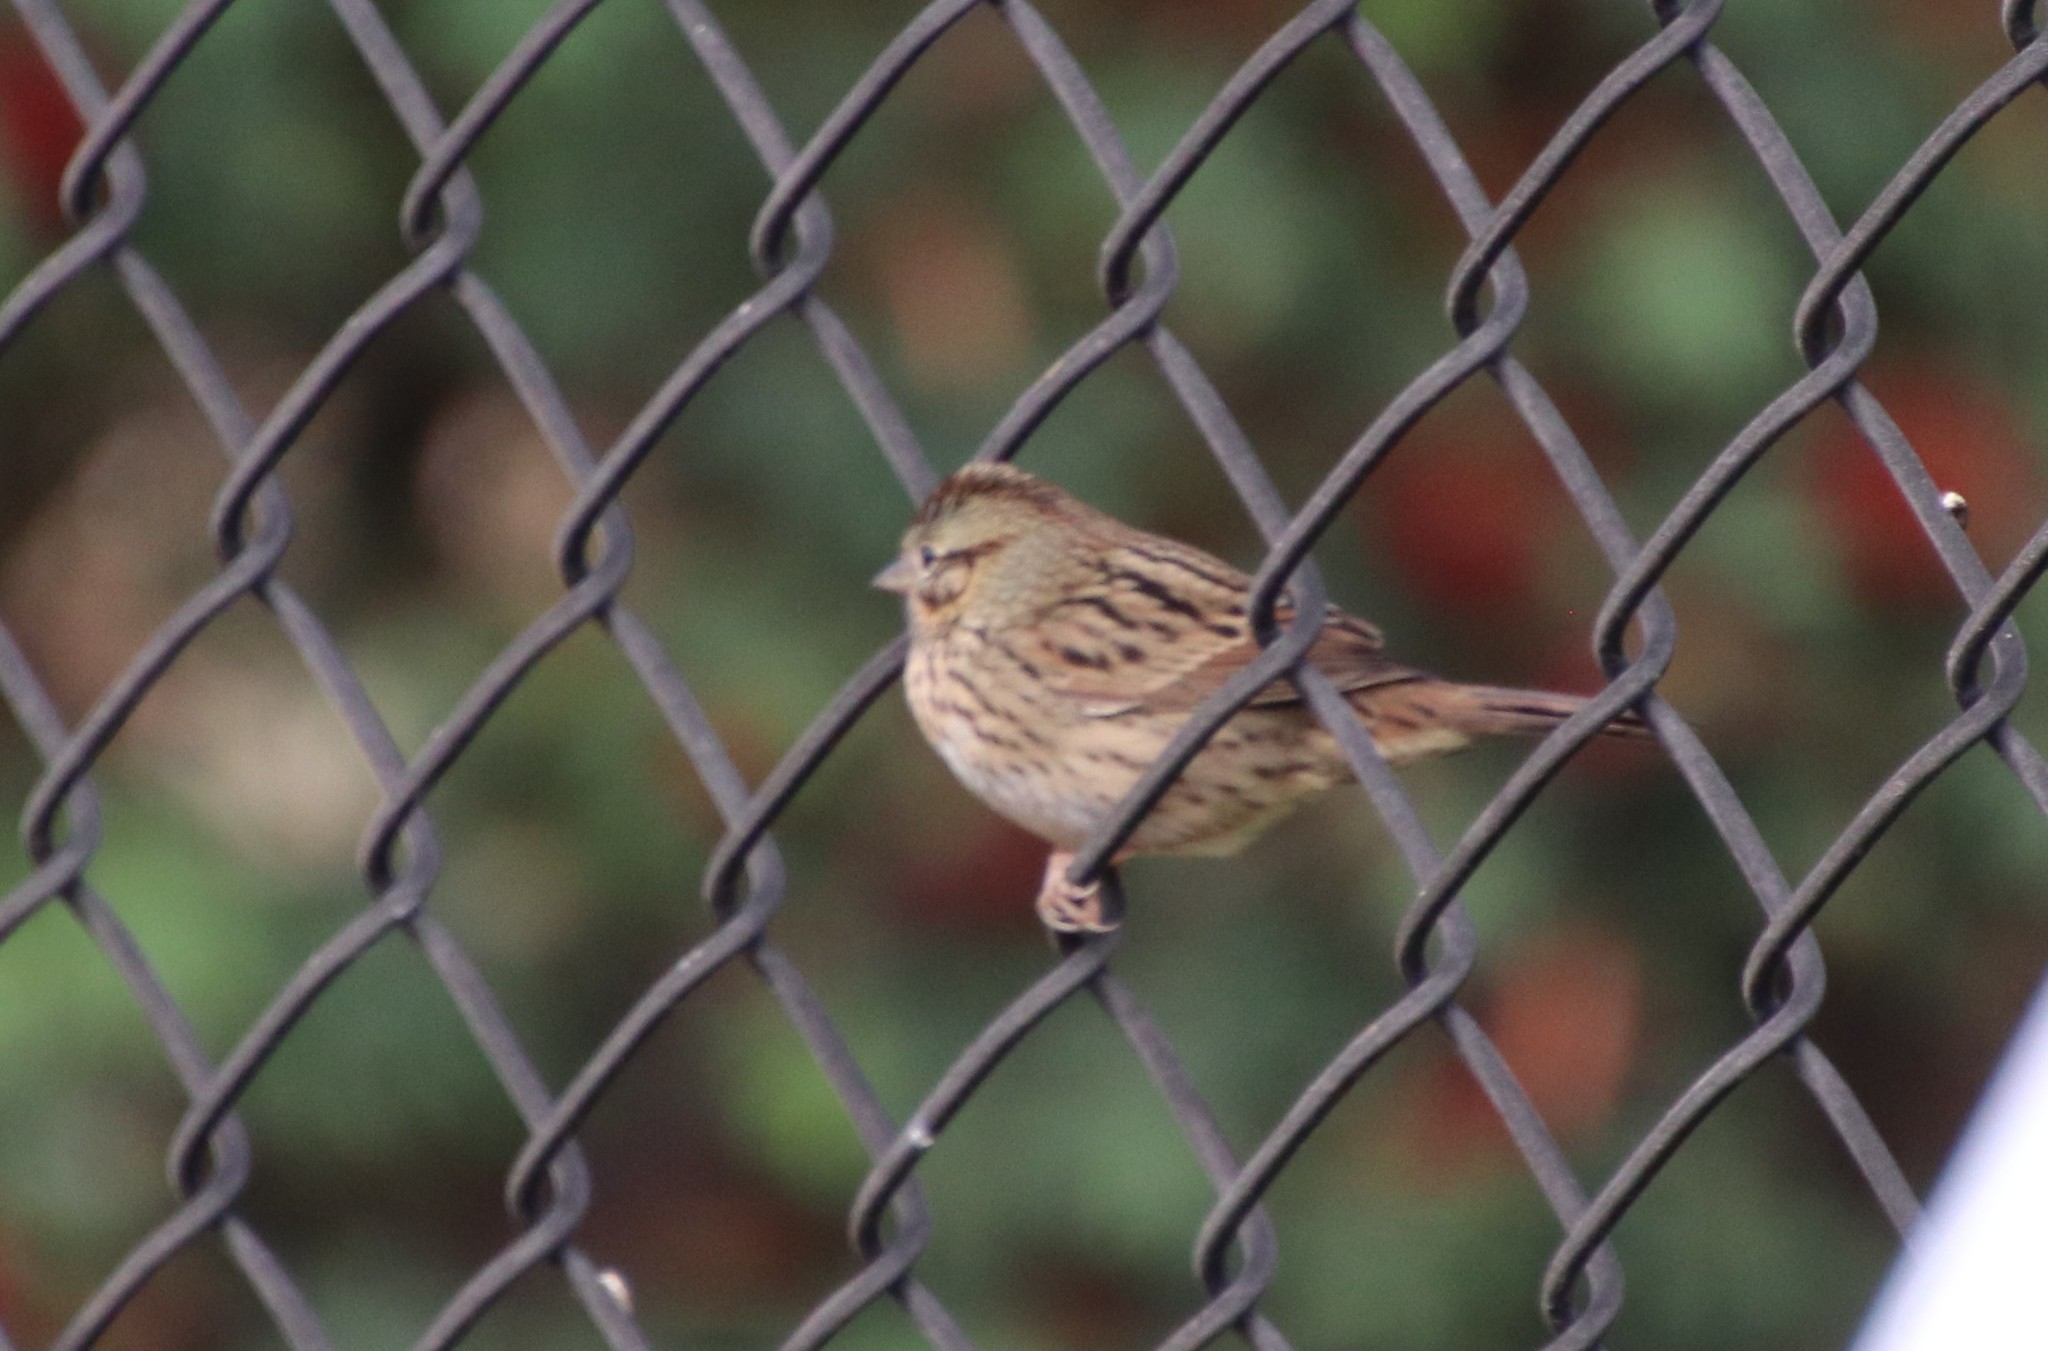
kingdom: Animalia
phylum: Chordata
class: Aves
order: Passeriformes
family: Passerellidae
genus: Melospiza
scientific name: Melospiza lincolnii
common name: Lincoln's sparrow
